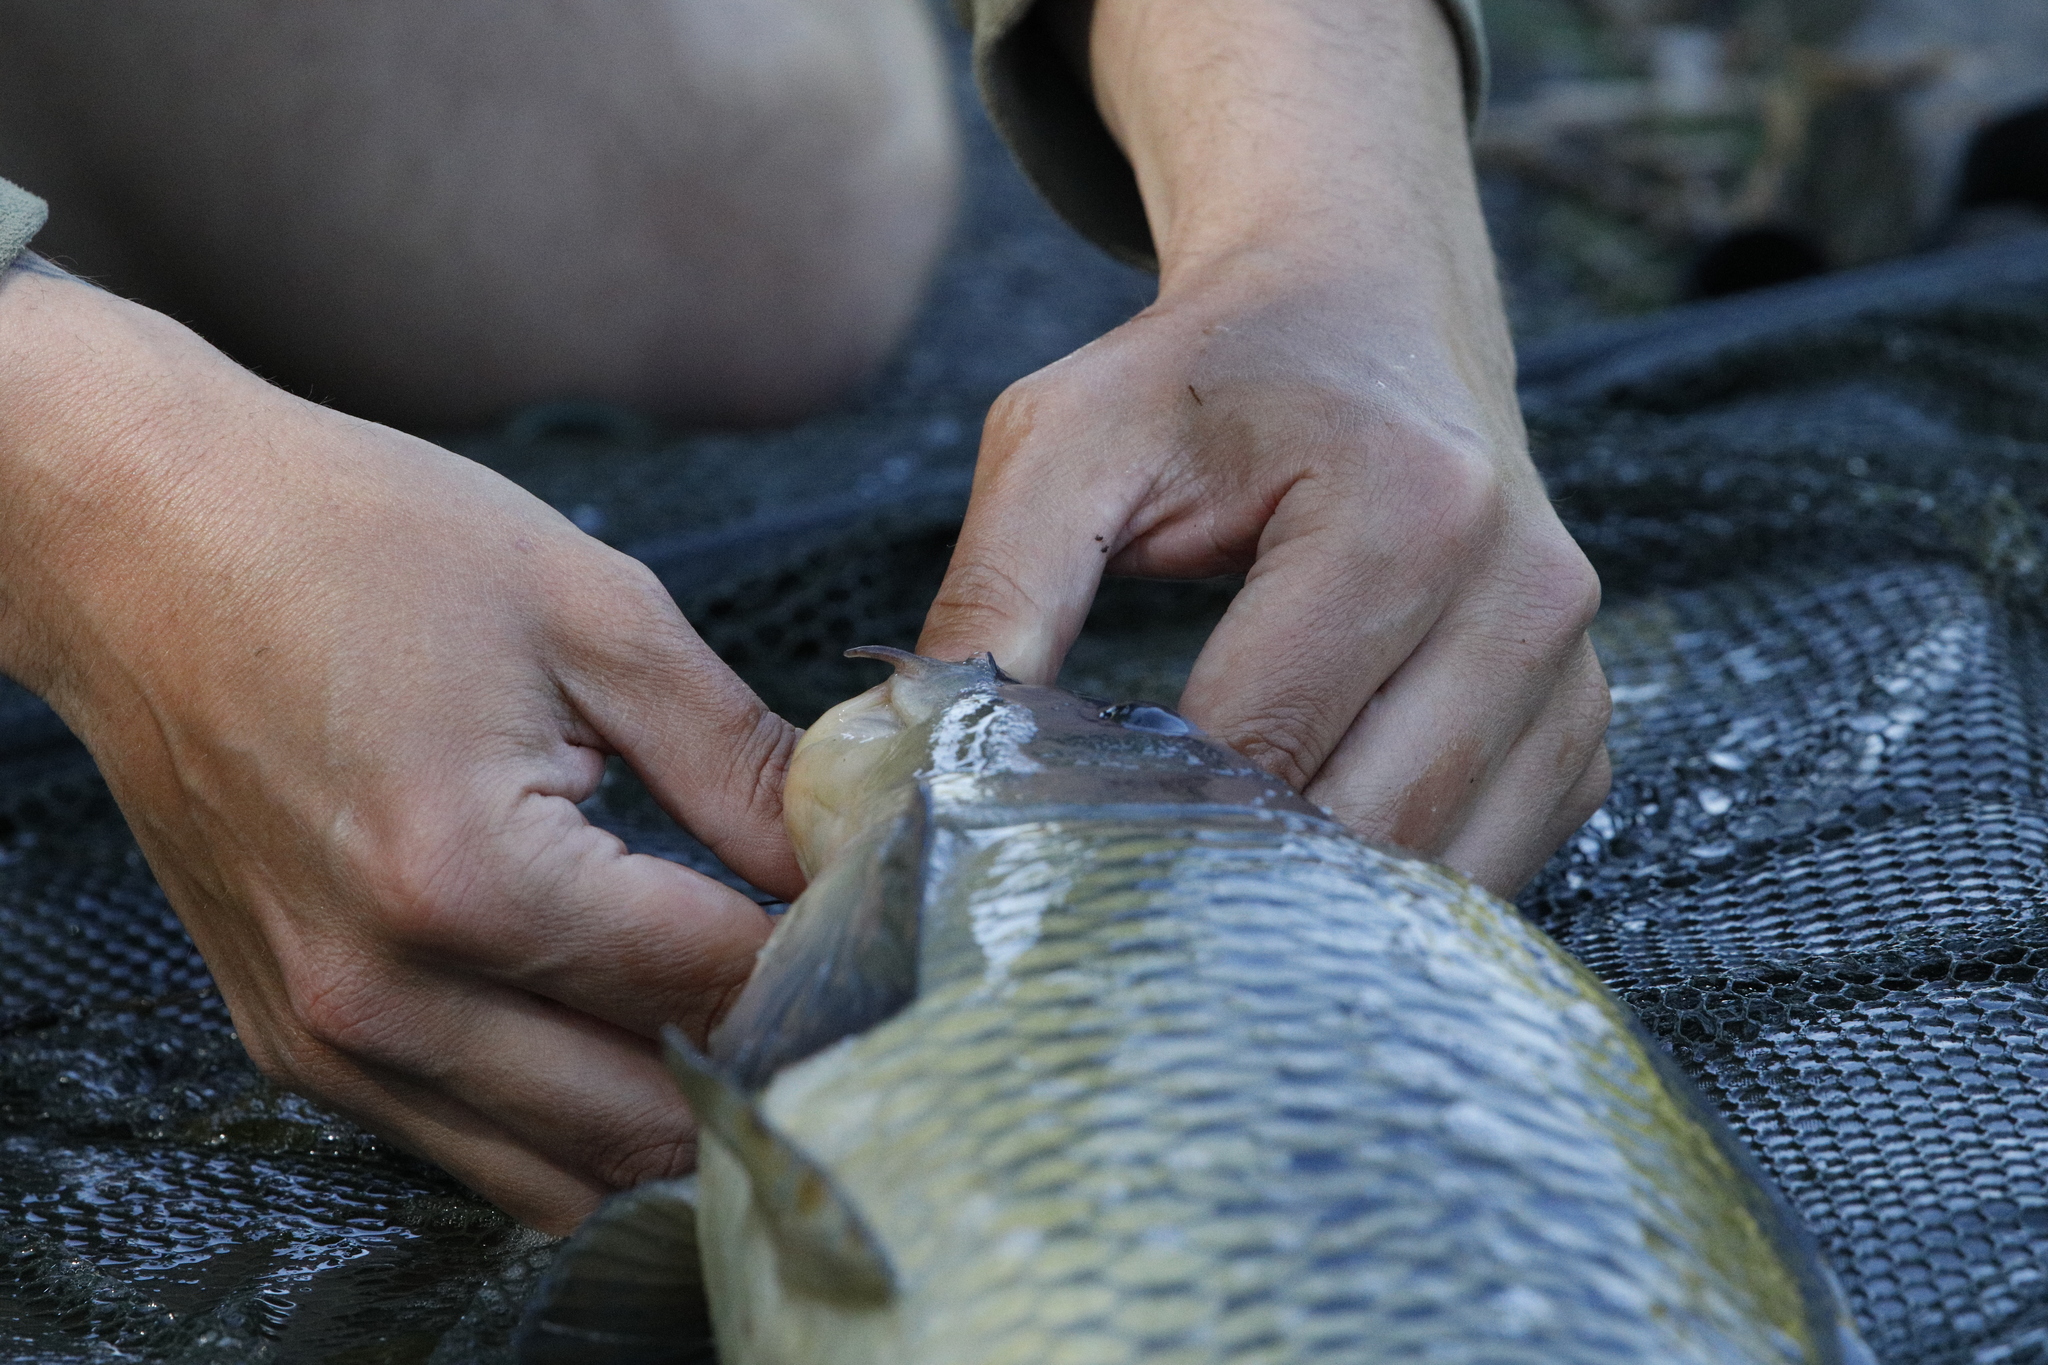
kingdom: Animalia
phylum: Chordata
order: Cypriniformes
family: Cyprinidae
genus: Cyprinus
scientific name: Cyprinus carpio
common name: Common carp
